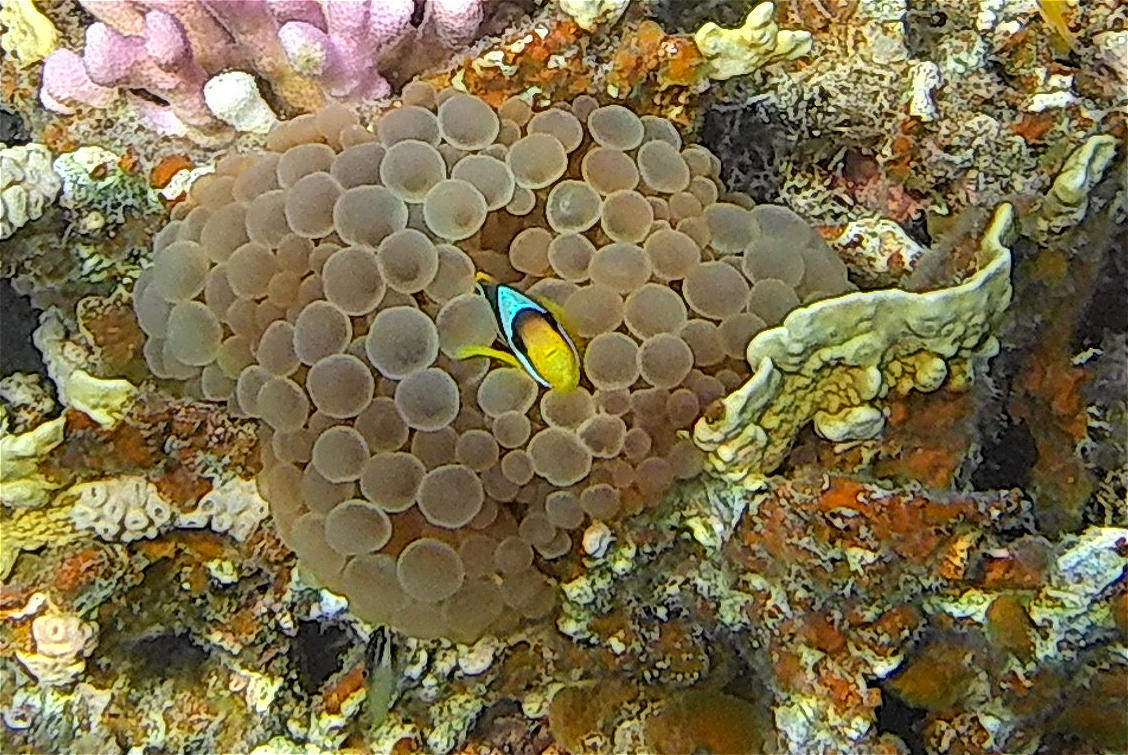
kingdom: Animalia
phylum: Chordata
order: Perciformes
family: Pomacentridae
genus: Amphiprion
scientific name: Amphiprion bicinctus
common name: Two-banded anemonefish
